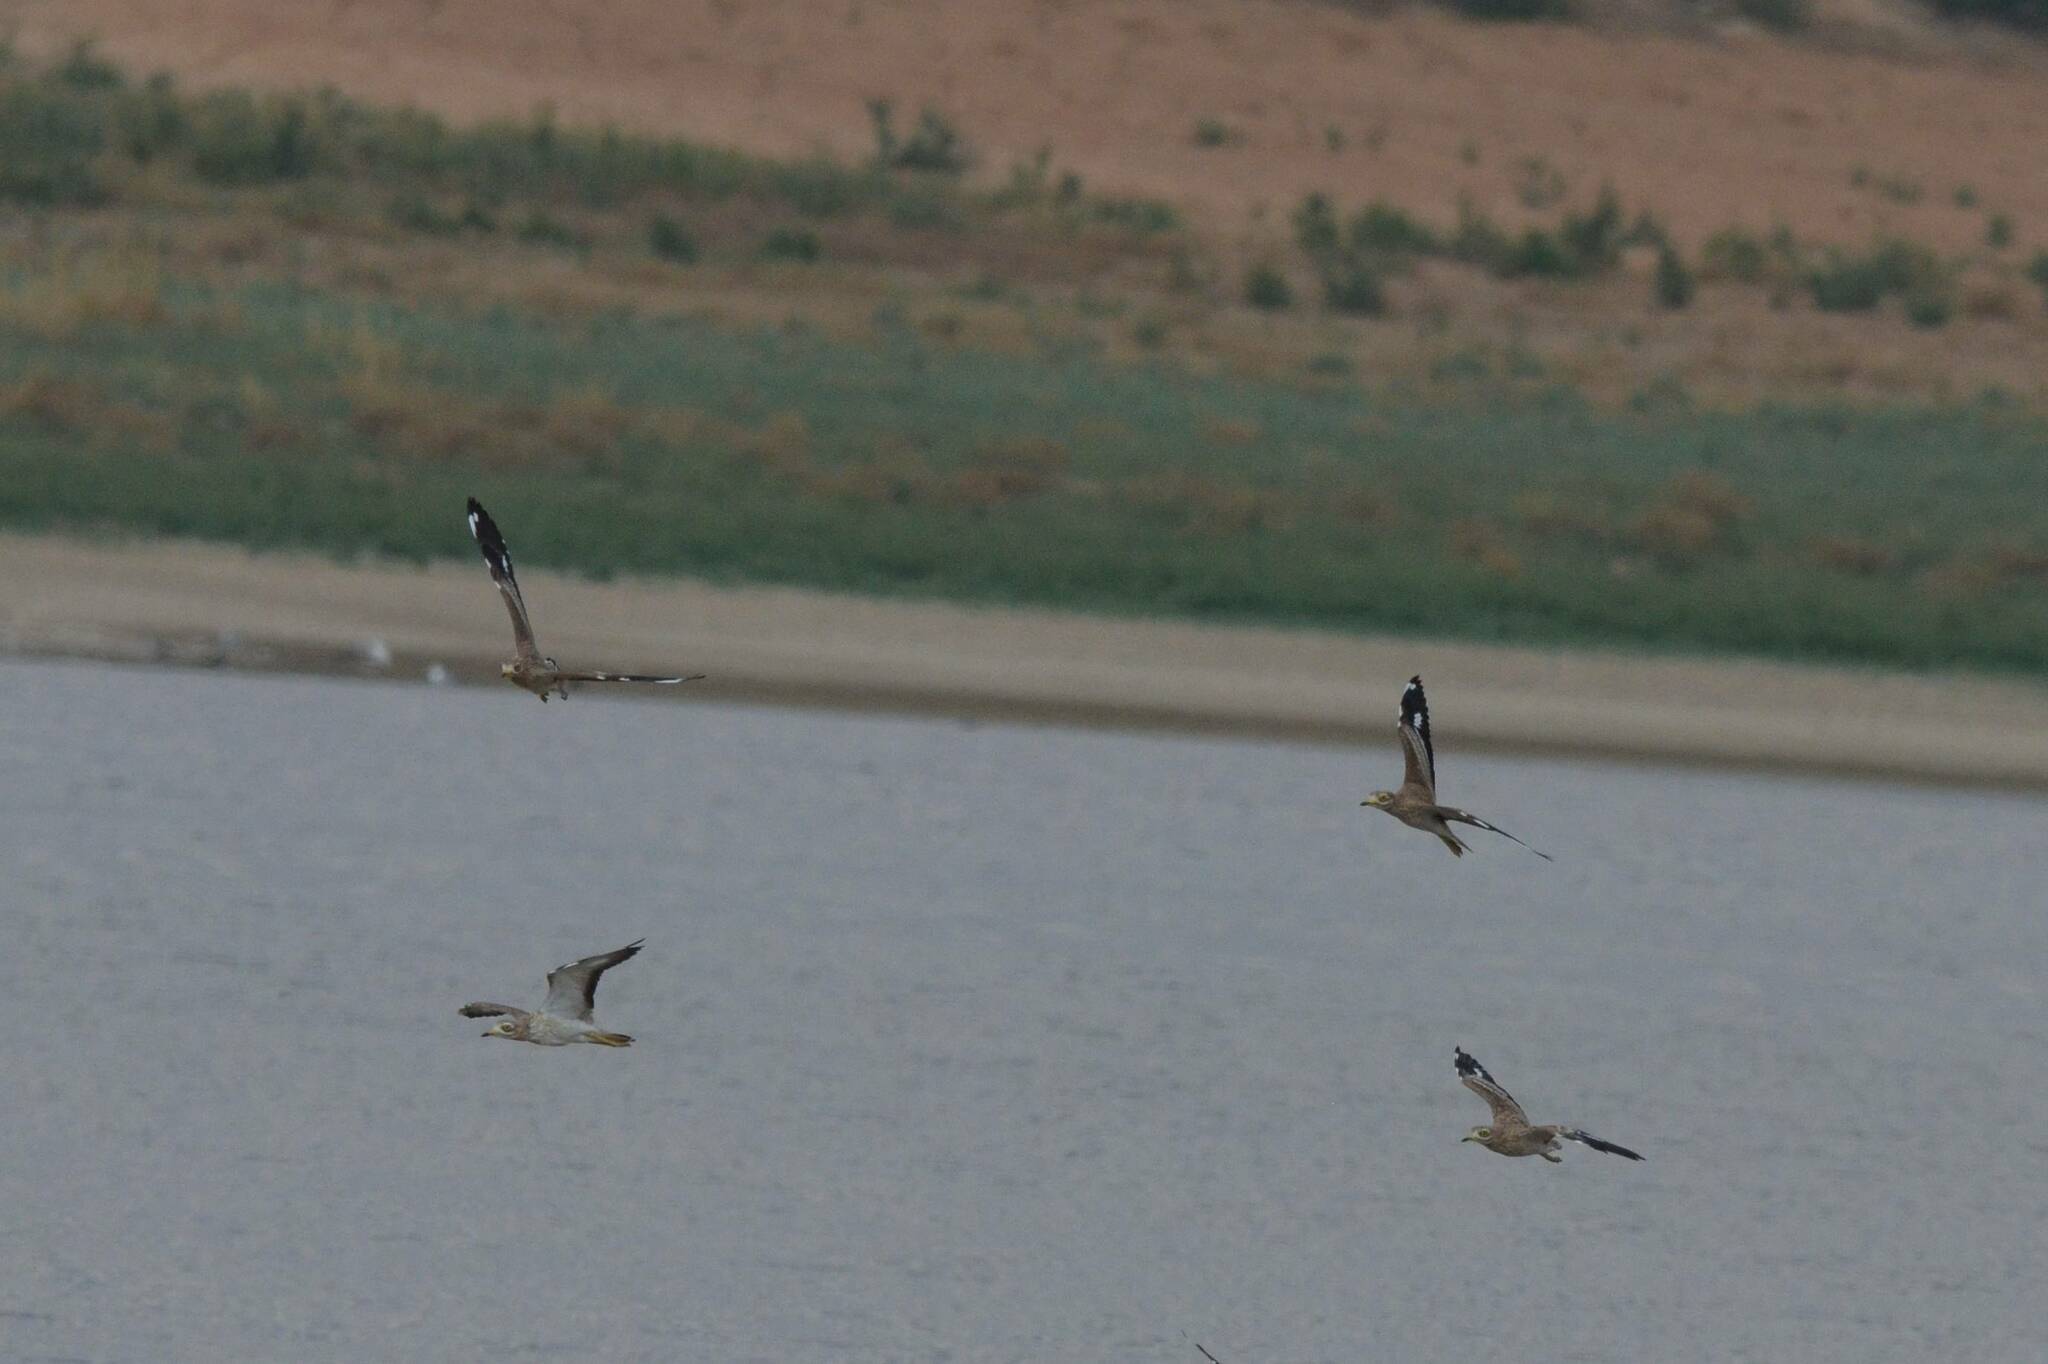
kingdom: Animalia
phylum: Chordata
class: Aves
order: Charadriiformes
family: Burhinidae
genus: Burhinus
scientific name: Burhinus oedicnemus
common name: Eurasian stone-curlew
